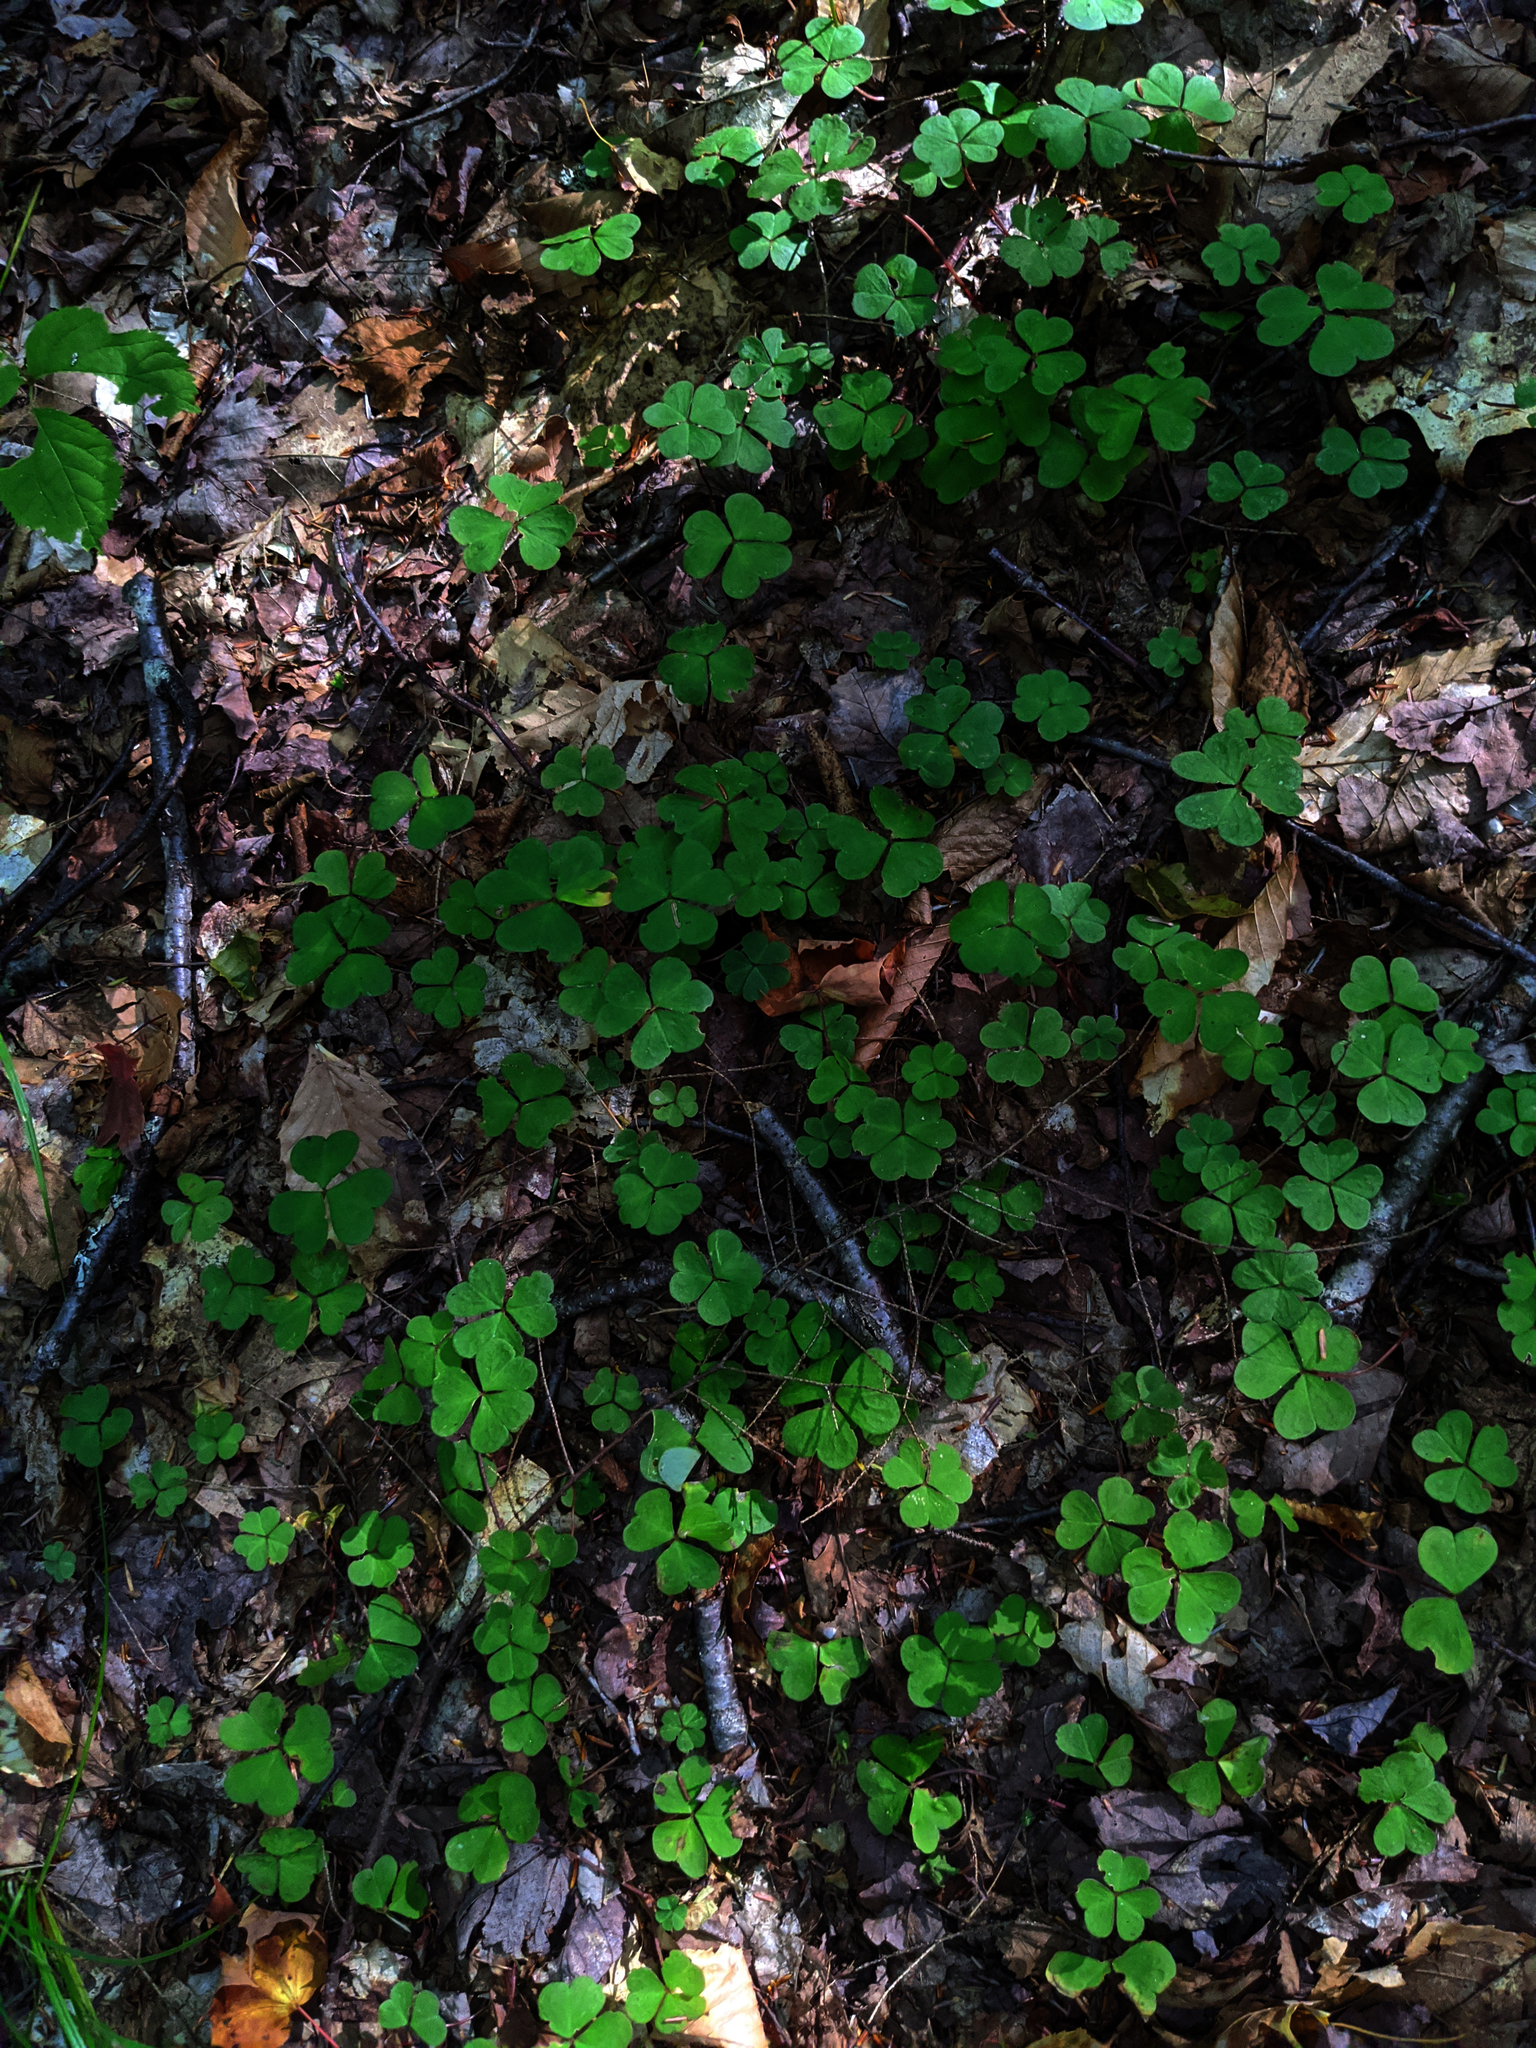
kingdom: Plantae
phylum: Tracheophyta
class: Magnoliopsida
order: Oxalidales
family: Oxalidaceae
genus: Oxalis
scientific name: Oxalis montana
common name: American wood-sorrel
